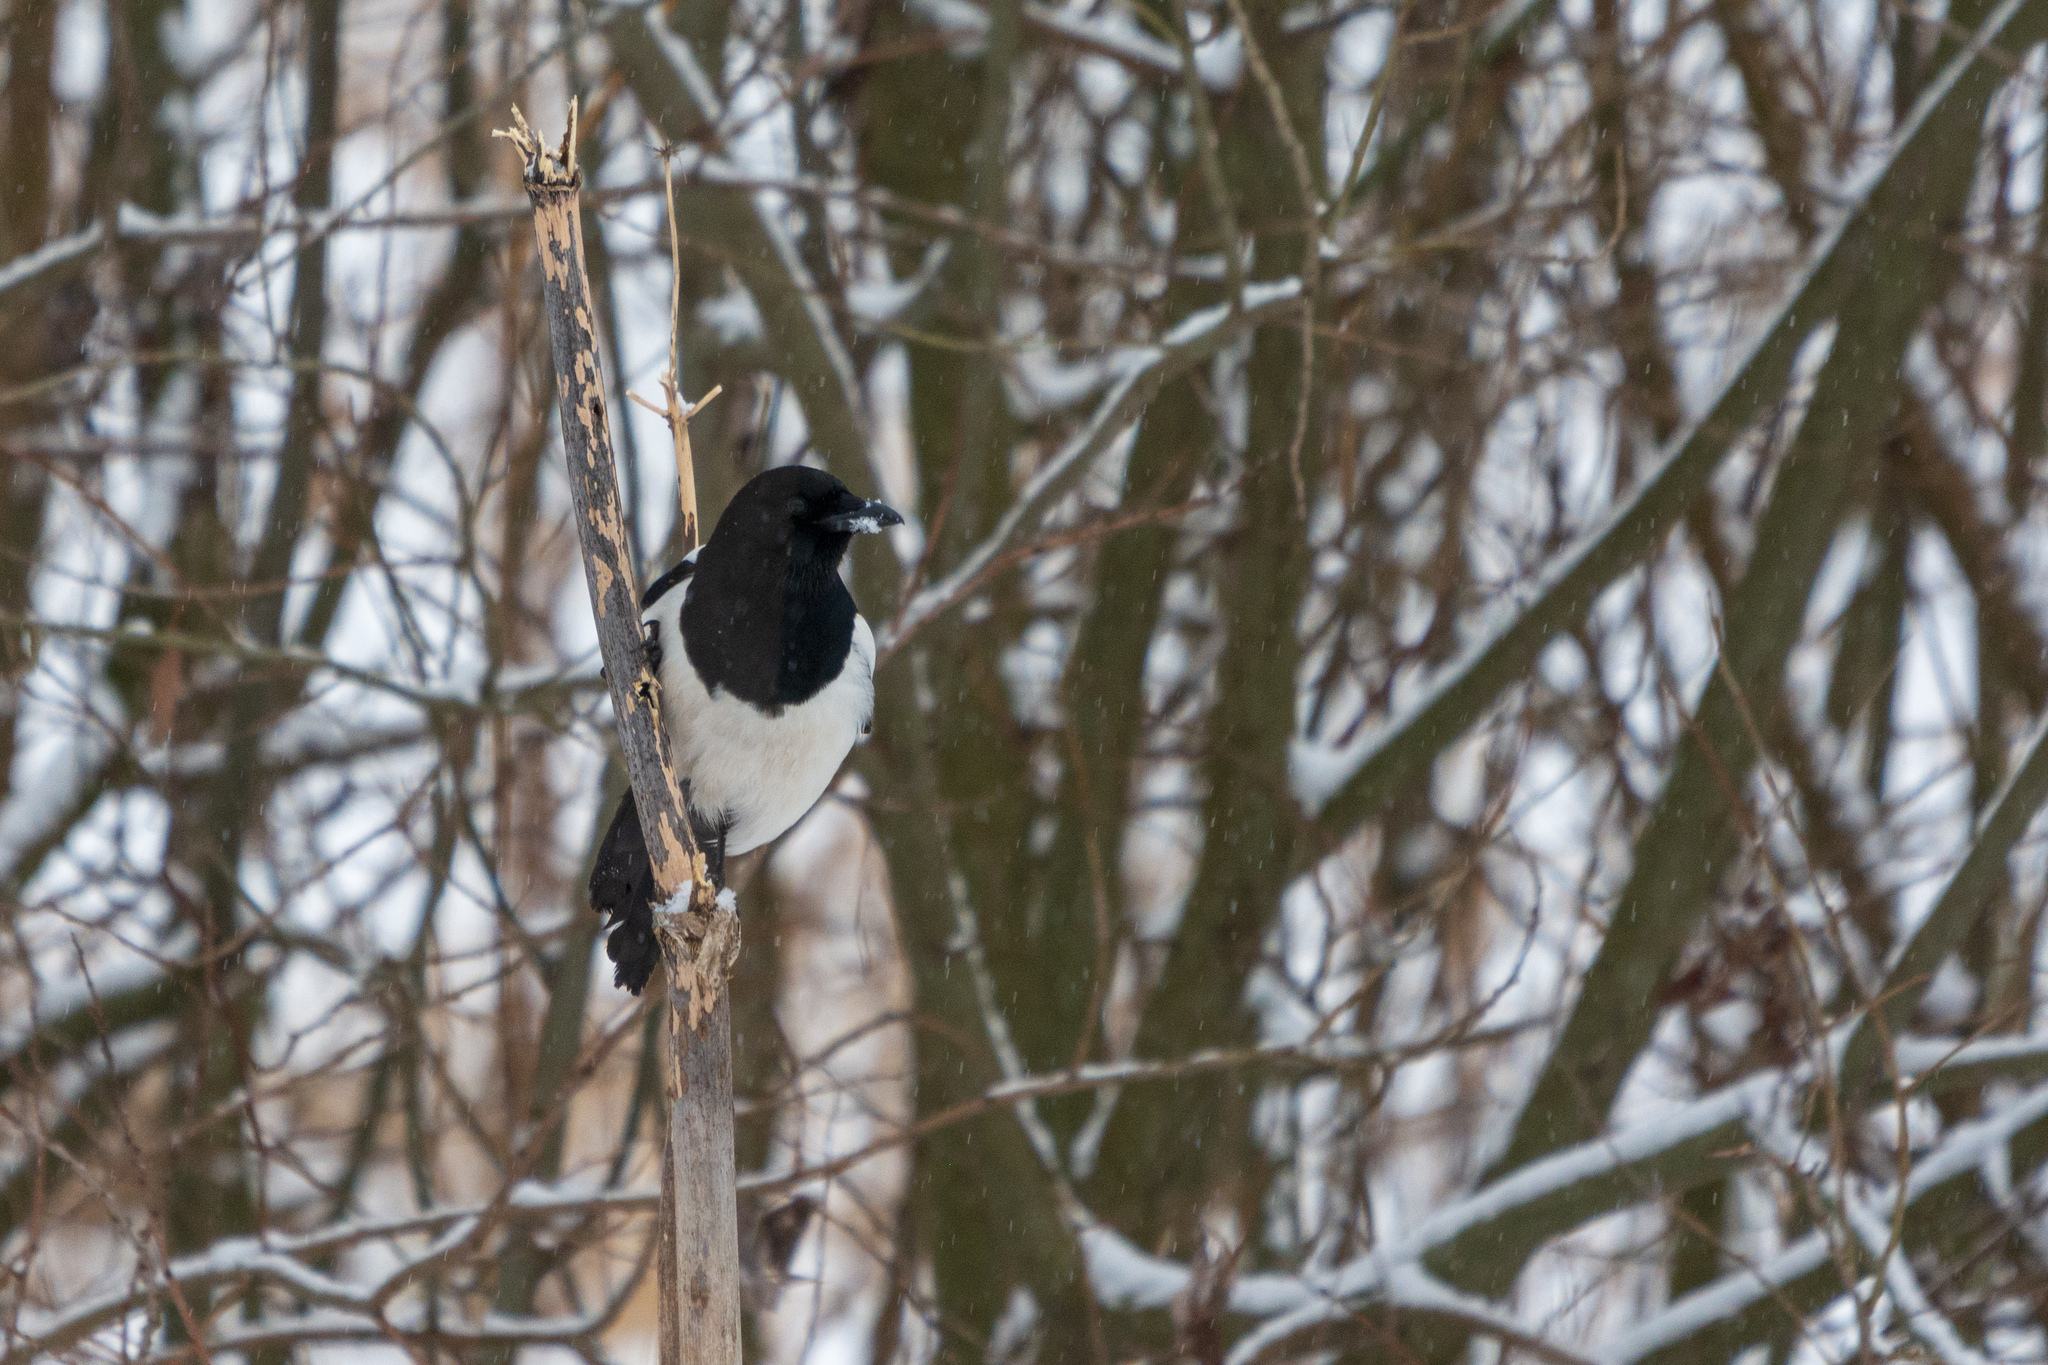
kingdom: Animalia
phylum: Chordata
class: Aves
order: Passeriformes
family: Corvidae
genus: Pica
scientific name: Pica pica
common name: Eurasian magpie
